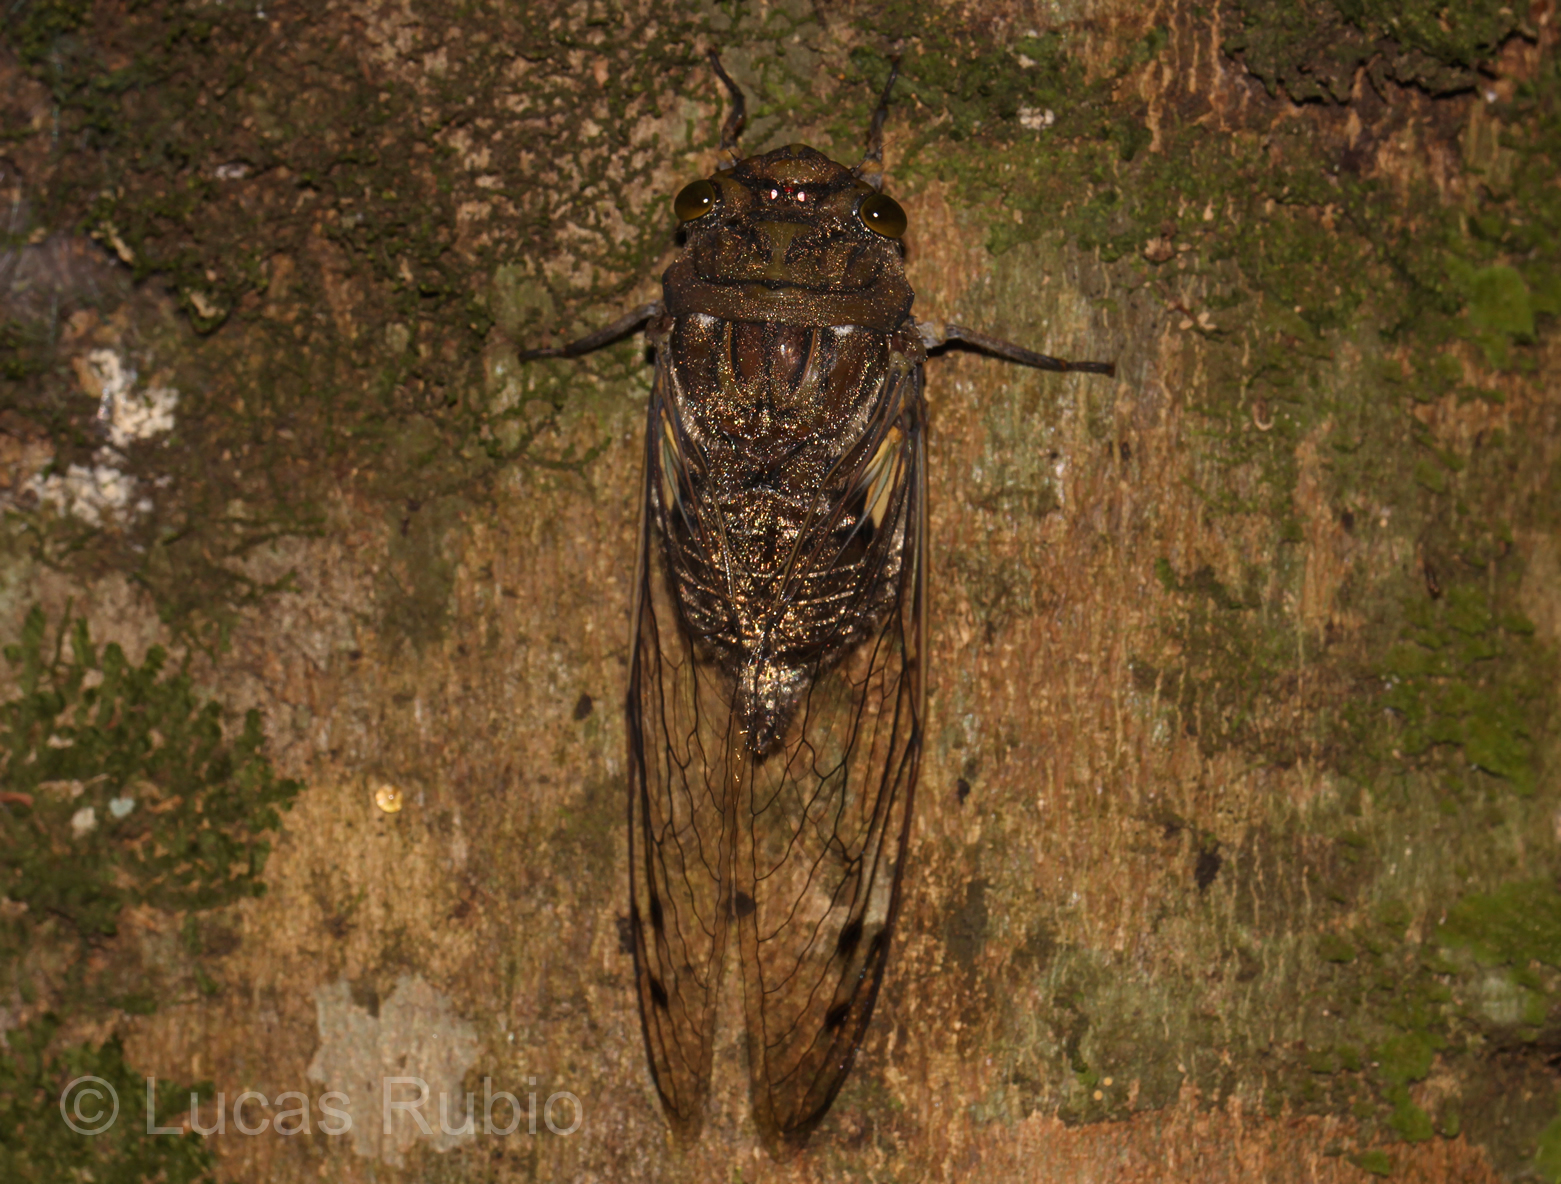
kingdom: Animalia
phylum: Arthropoda
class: Insecta
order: Hemiptera
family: Cicadidae
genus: Quesada
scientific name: Quesada gigas
